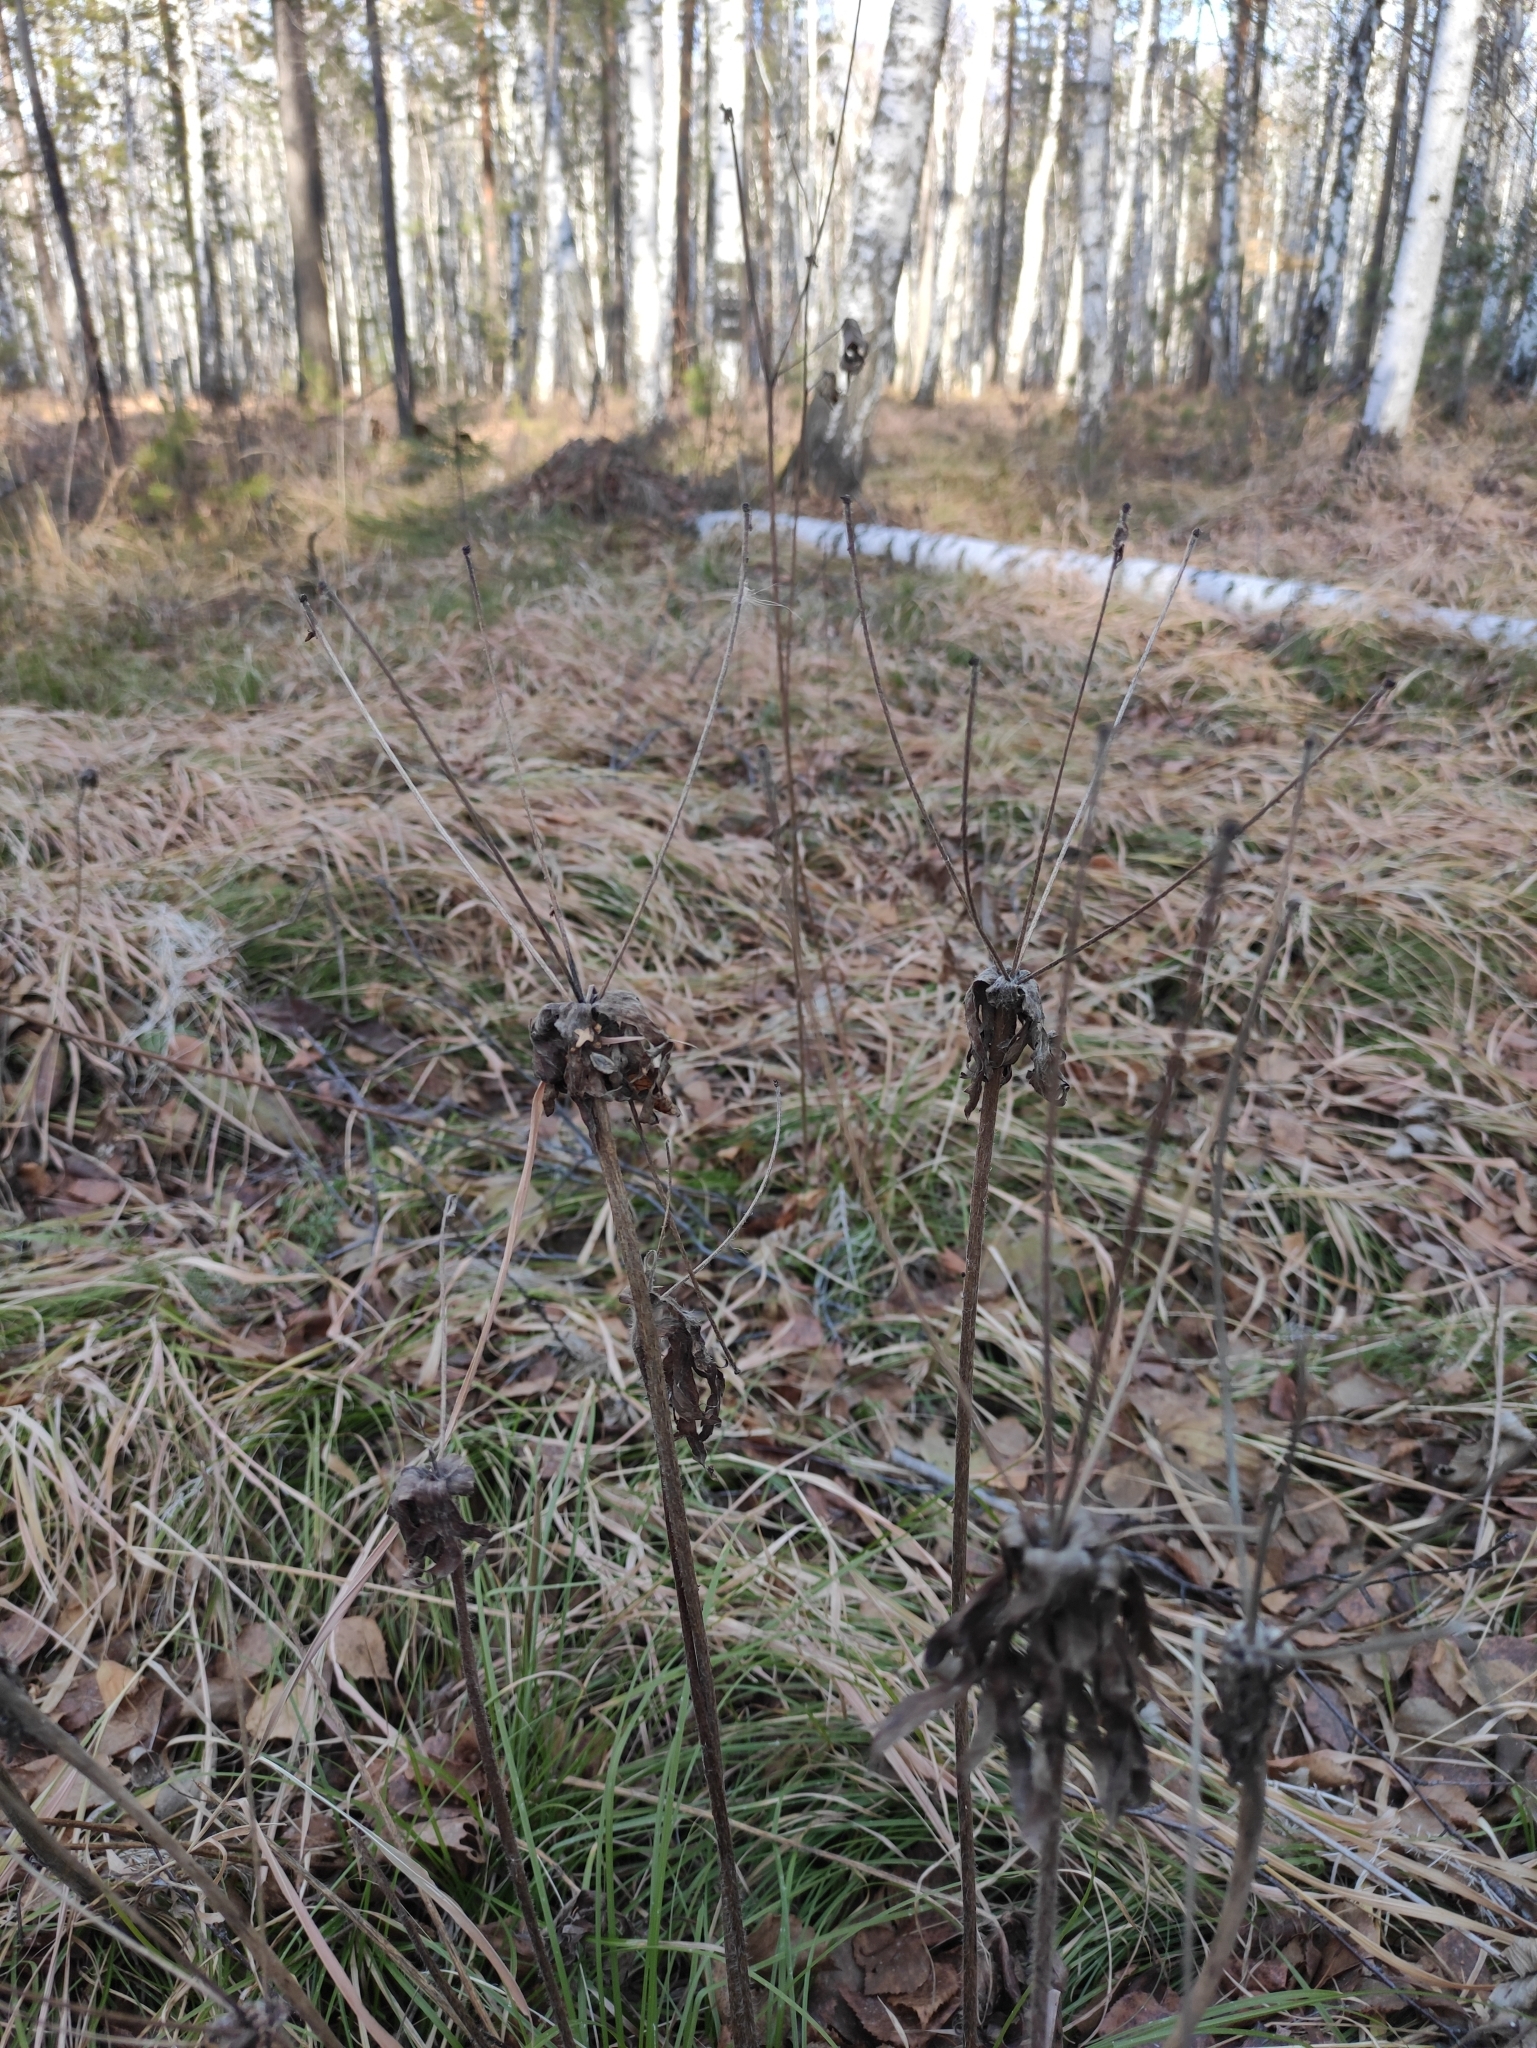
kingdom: Plantae
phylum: Tracheophyta
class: Magnoliopsida
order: Ranunculales
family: Ranunculaceae
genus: Anemonastrum
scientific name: Anemonastrum narcissiflorum
